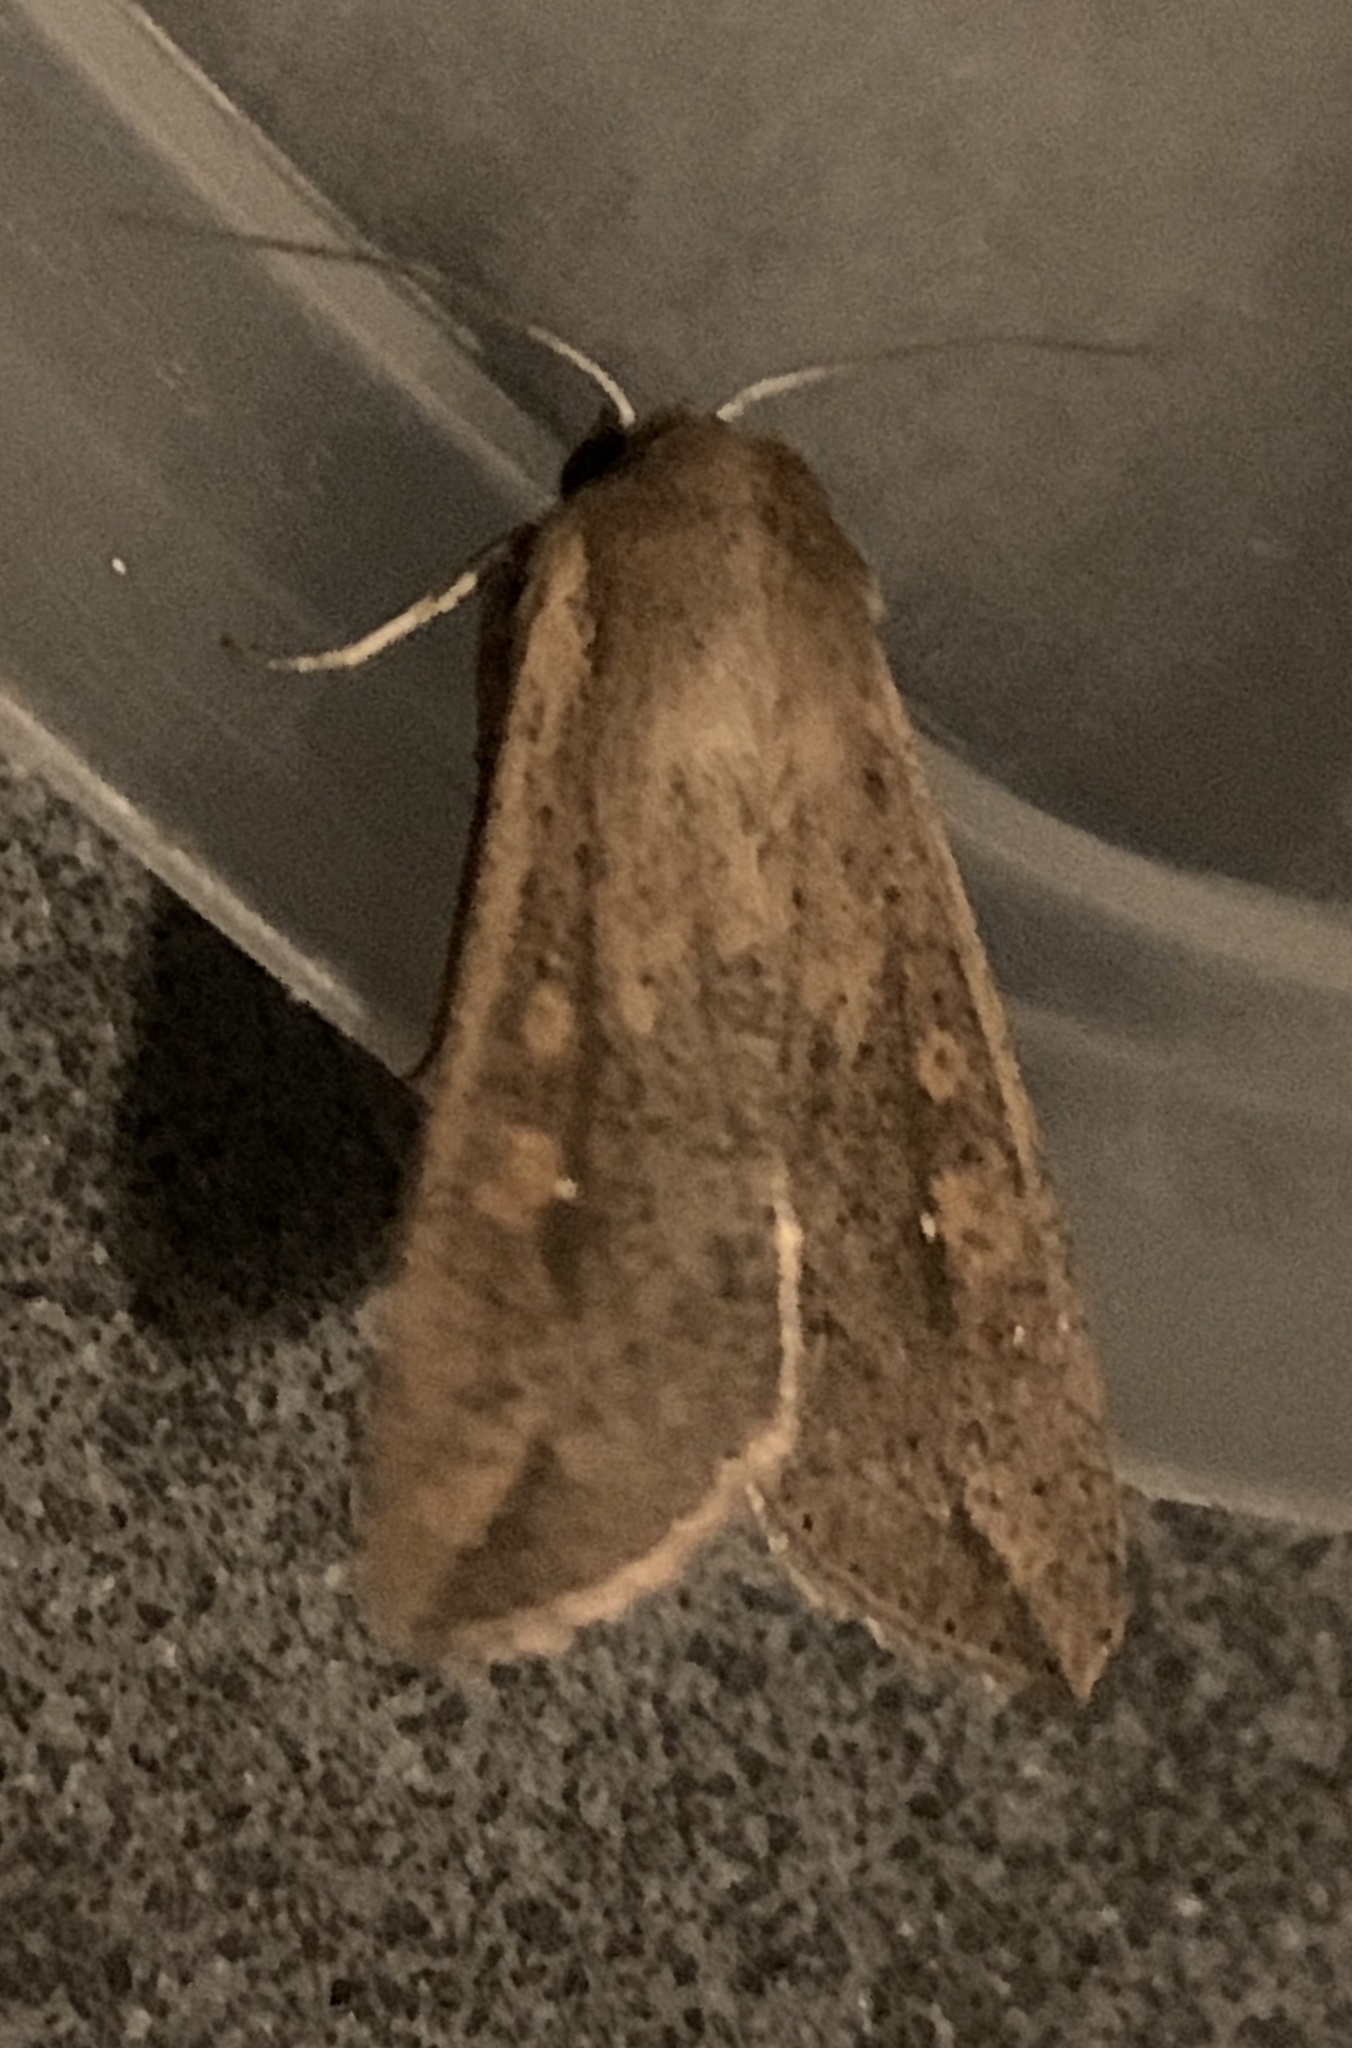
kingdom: Animalia
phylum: Arthropoda
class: Insecta
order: Lepidoptera
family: Noctuidae
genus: Mythimna
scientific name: Mythimna unipuncta
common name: White-speck
